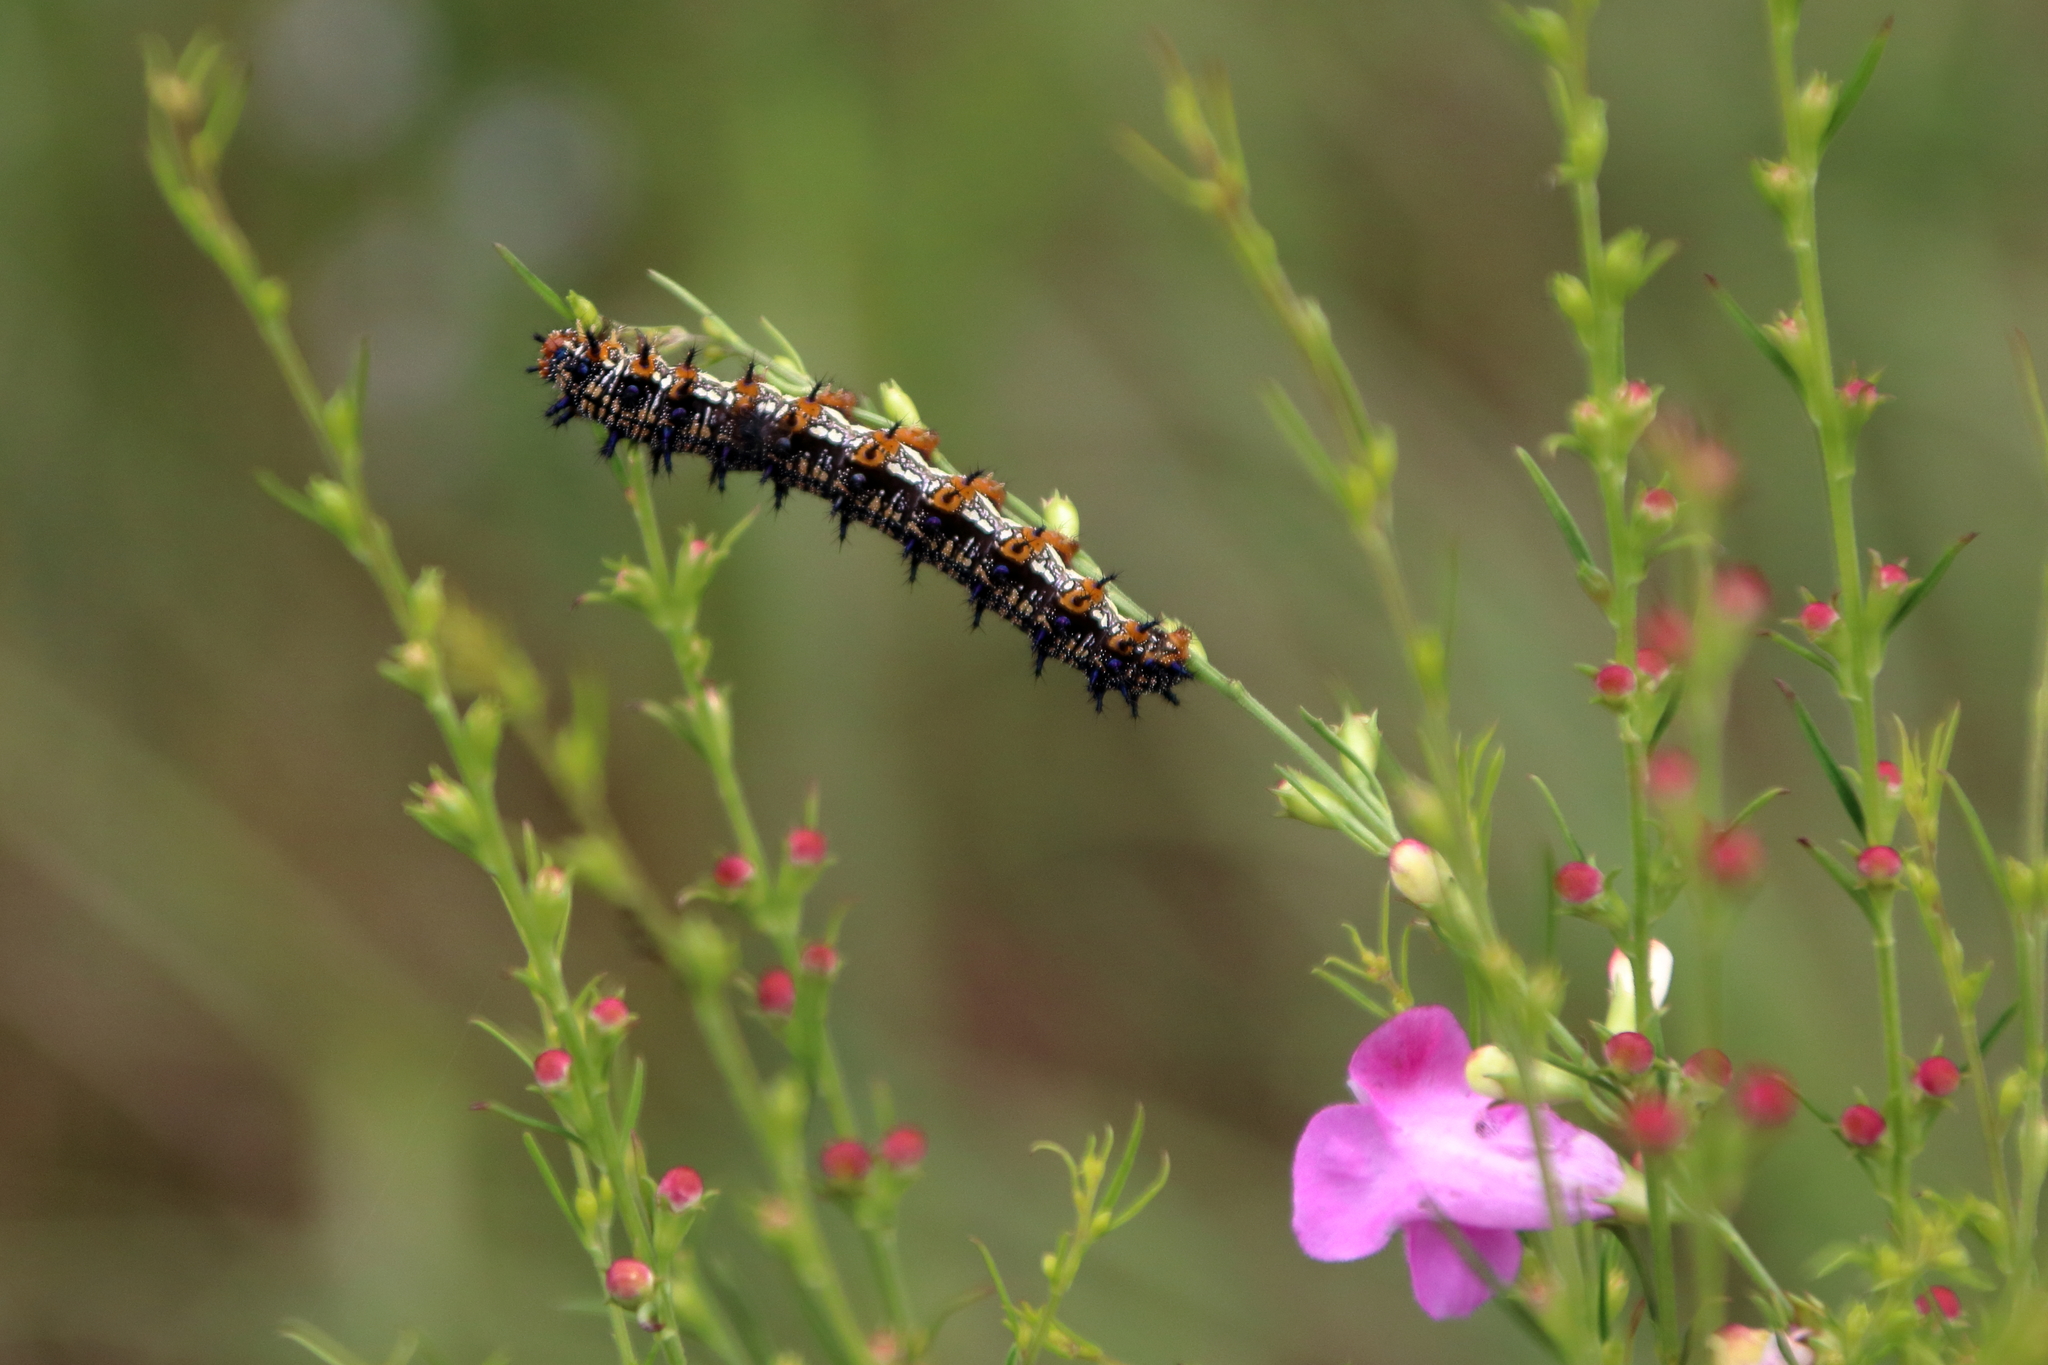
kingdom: Animalia
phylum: Arthropoda
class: Insecta
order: Lepidoptera
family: Nymphalidae
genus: Junonia
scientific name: Junonia coenia
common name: Common buckeye
